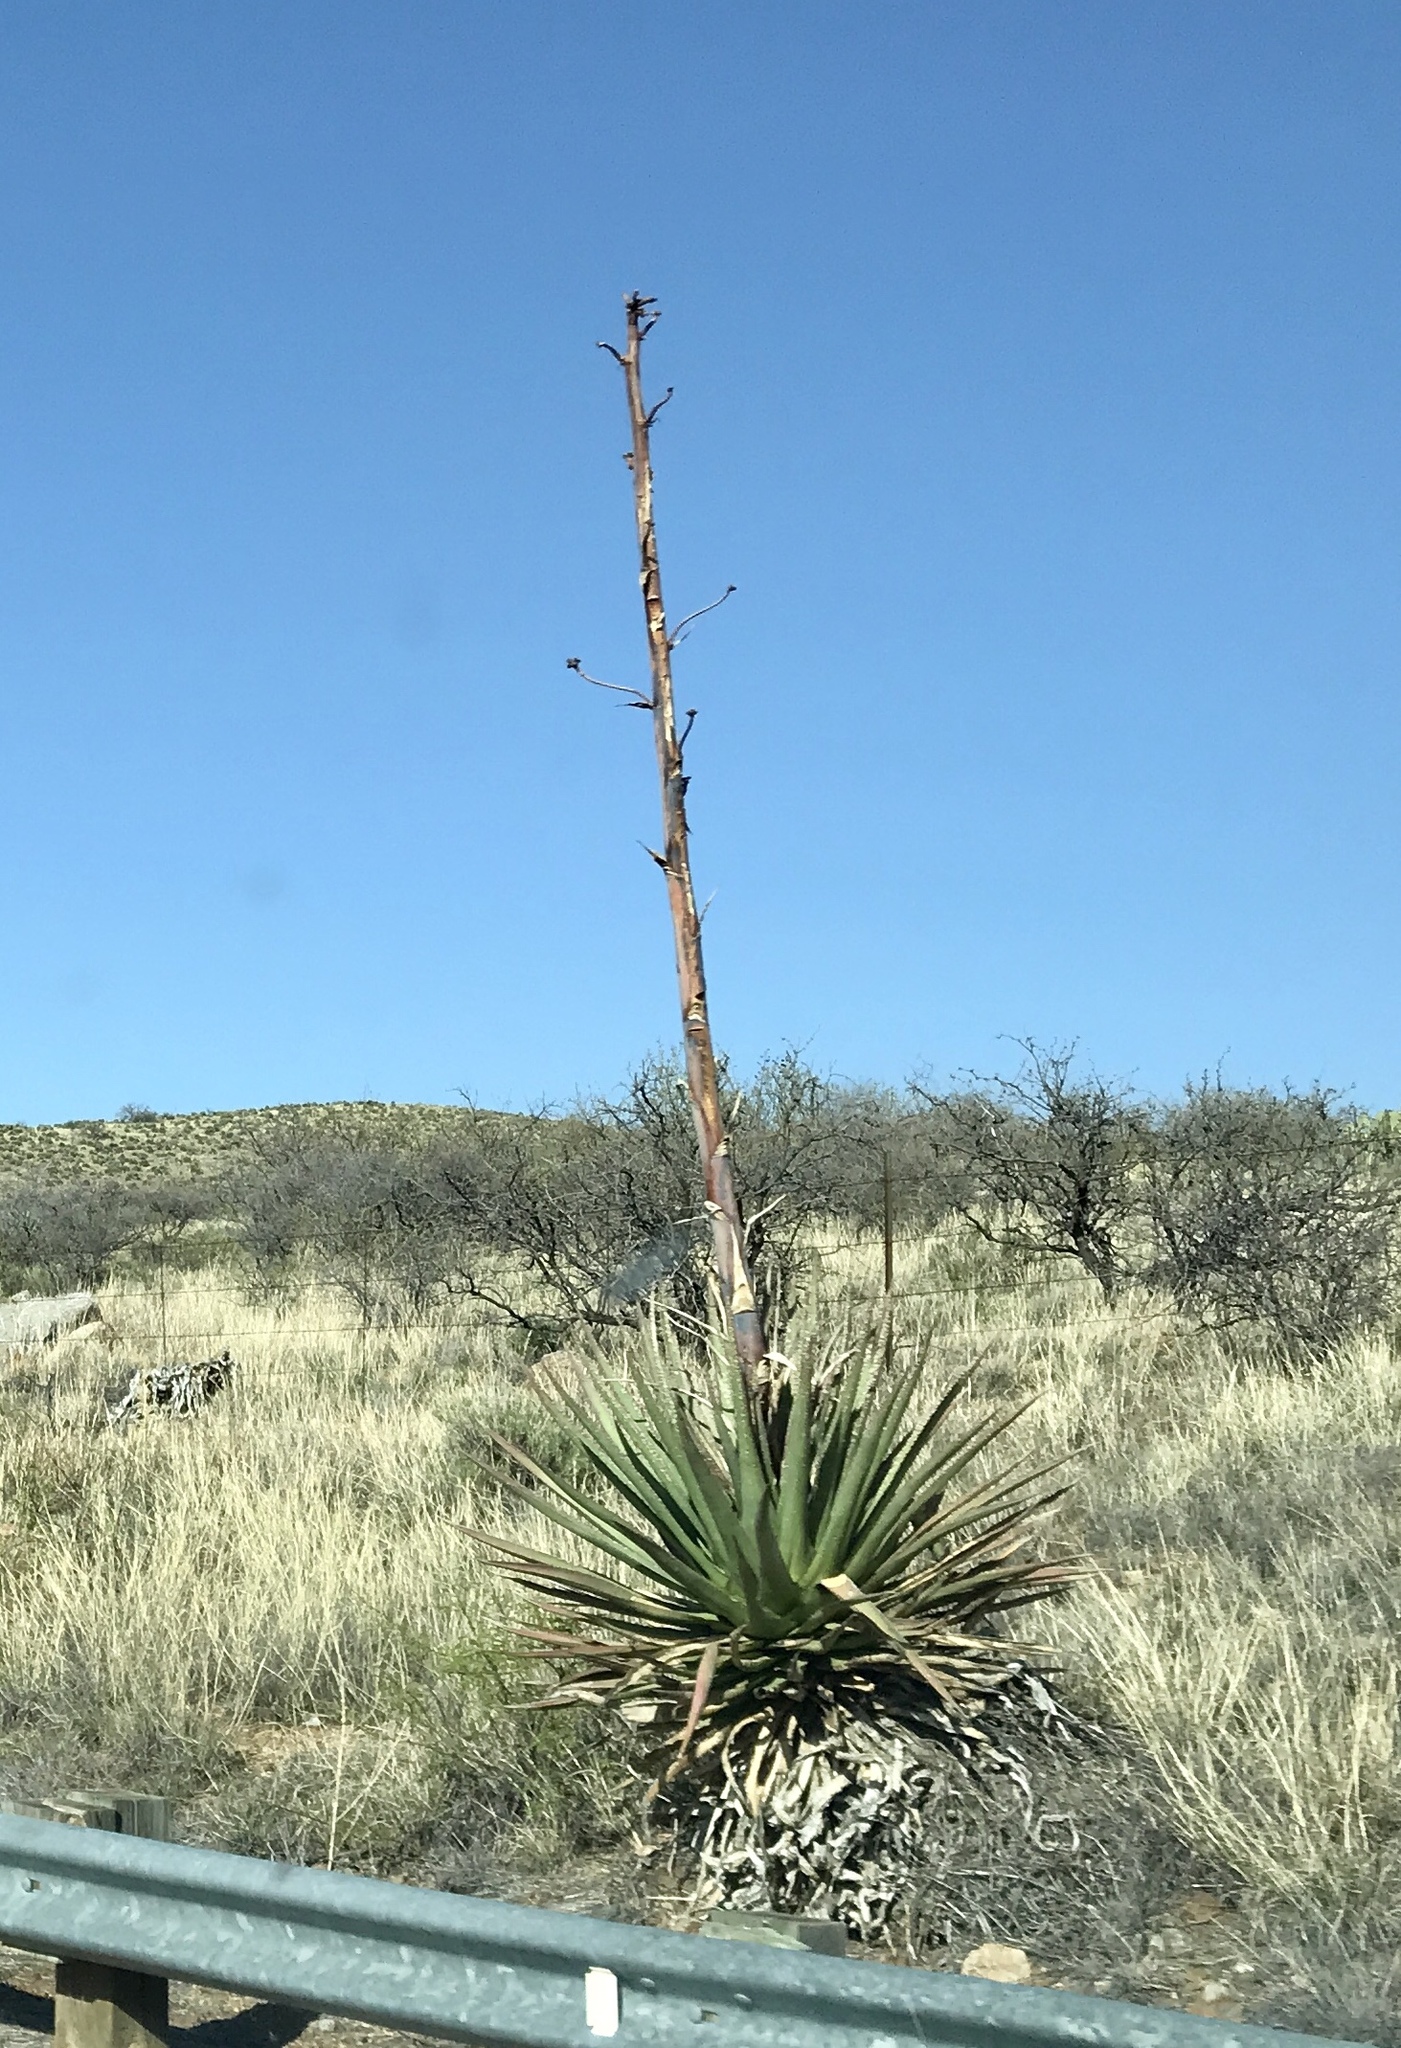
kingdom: Plantae
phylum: Tracheophyta
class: Liliopsida
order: Asparagales
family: Asparagaceae
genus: Agave
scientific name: Agave palmeri
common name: Palmer agave
